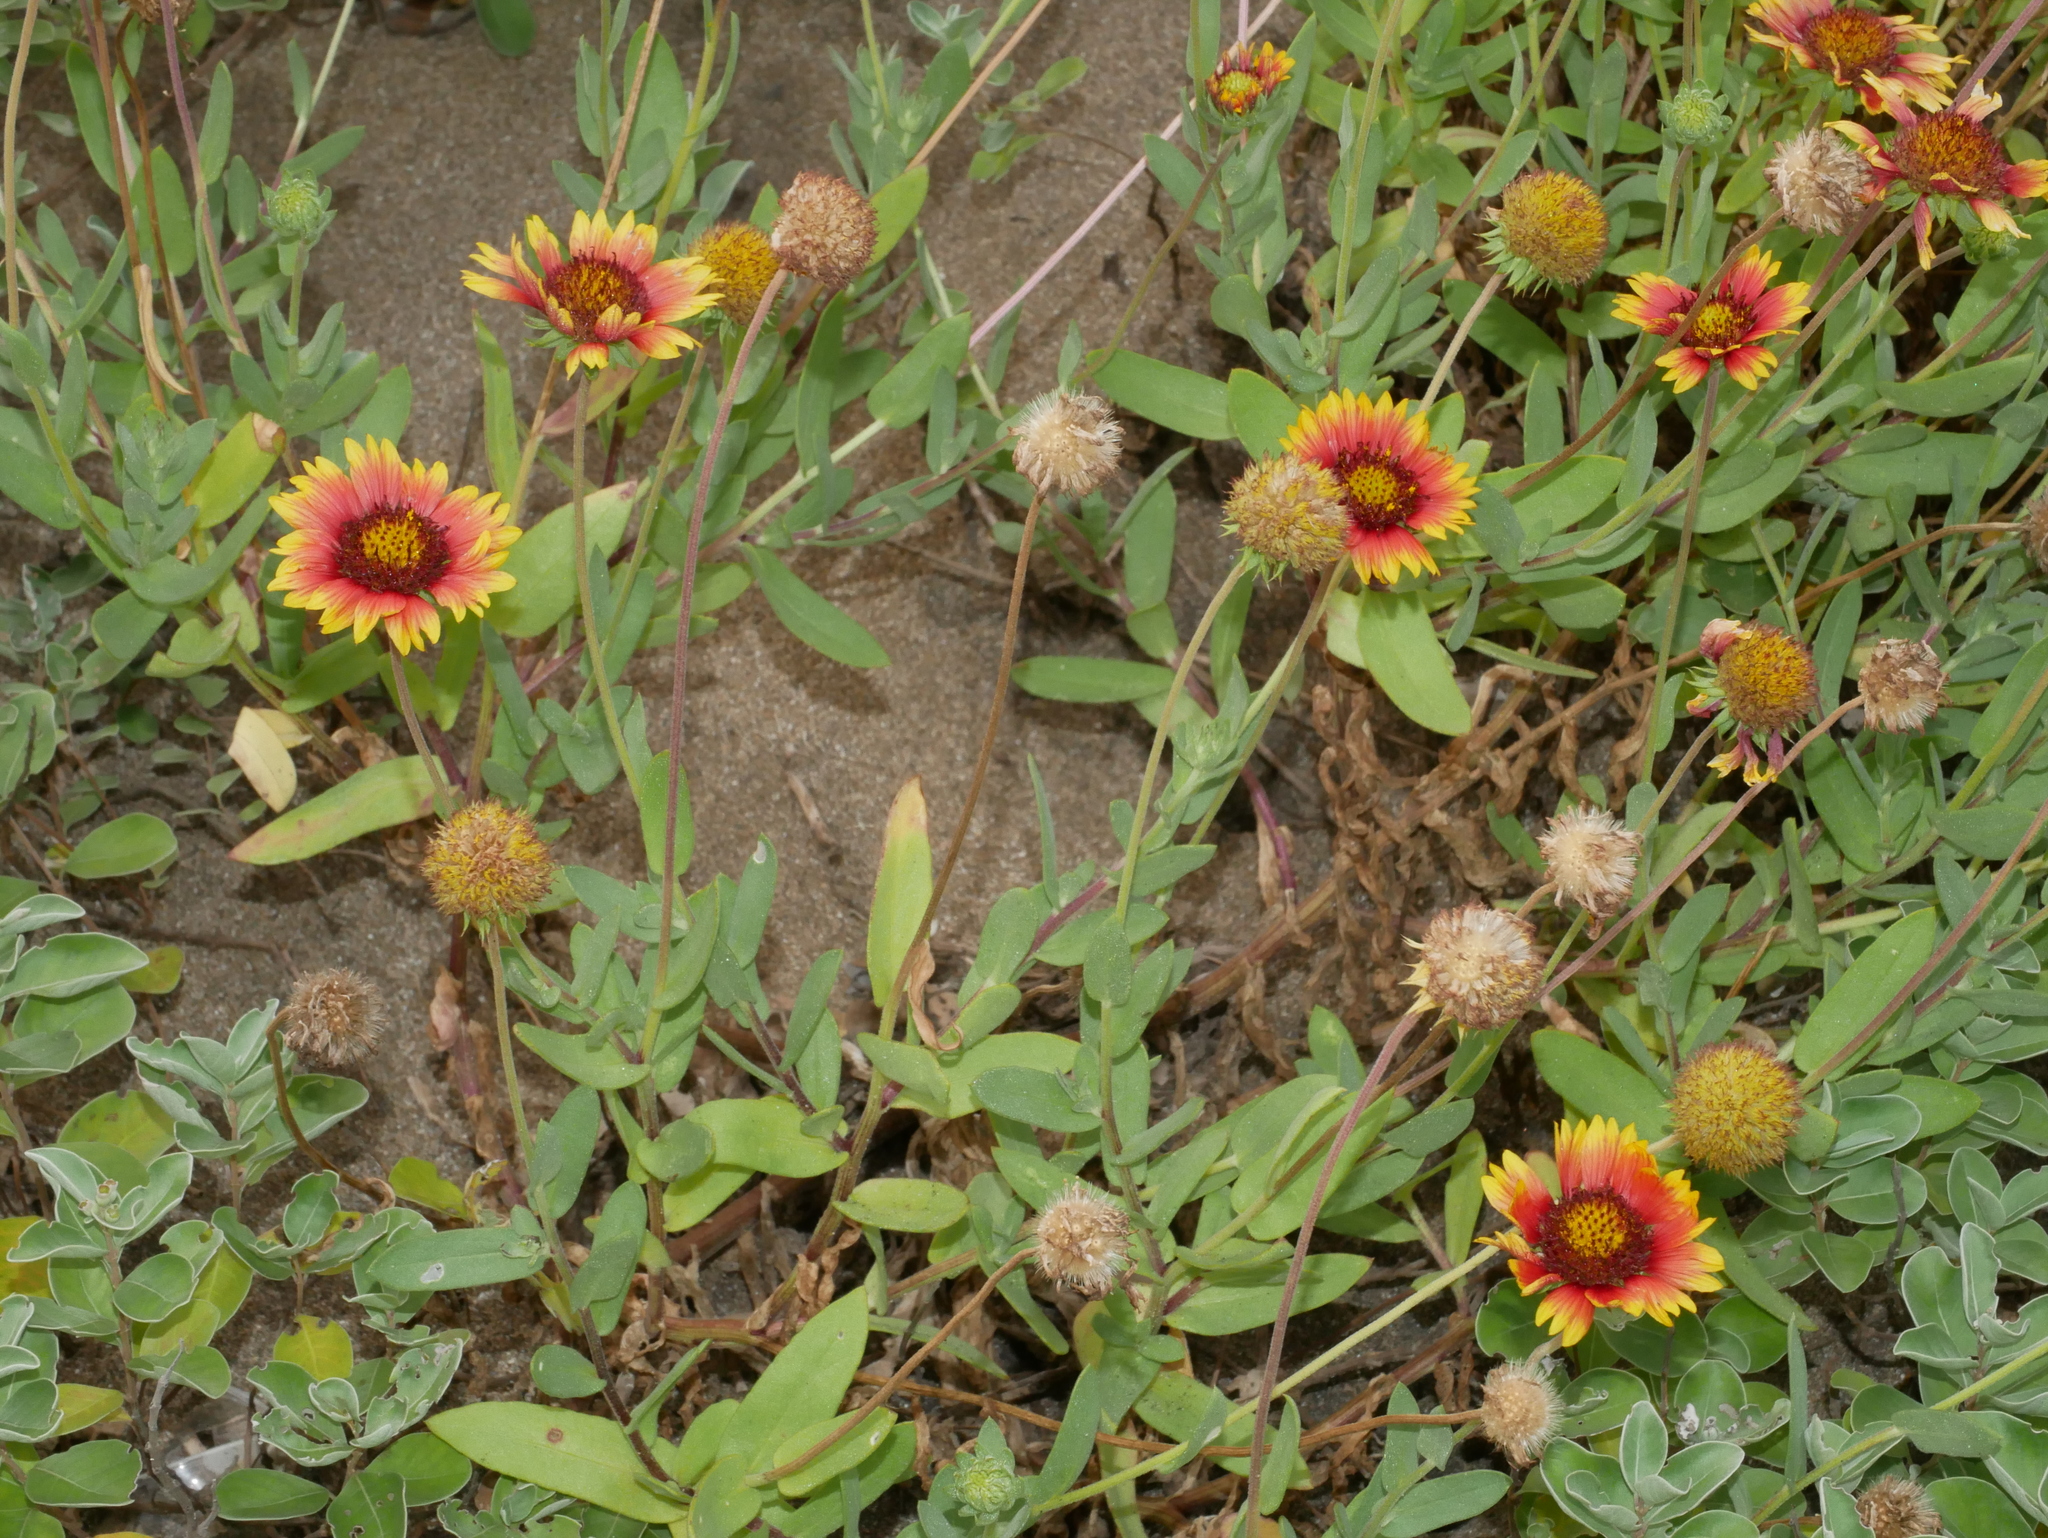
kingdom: Plantae
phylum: Tracheophyta
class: Magnoliopsida
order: Asterales
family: Asteraceae
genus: Gaillardia
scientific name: Gaillardia pulchella
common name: Firewheel
